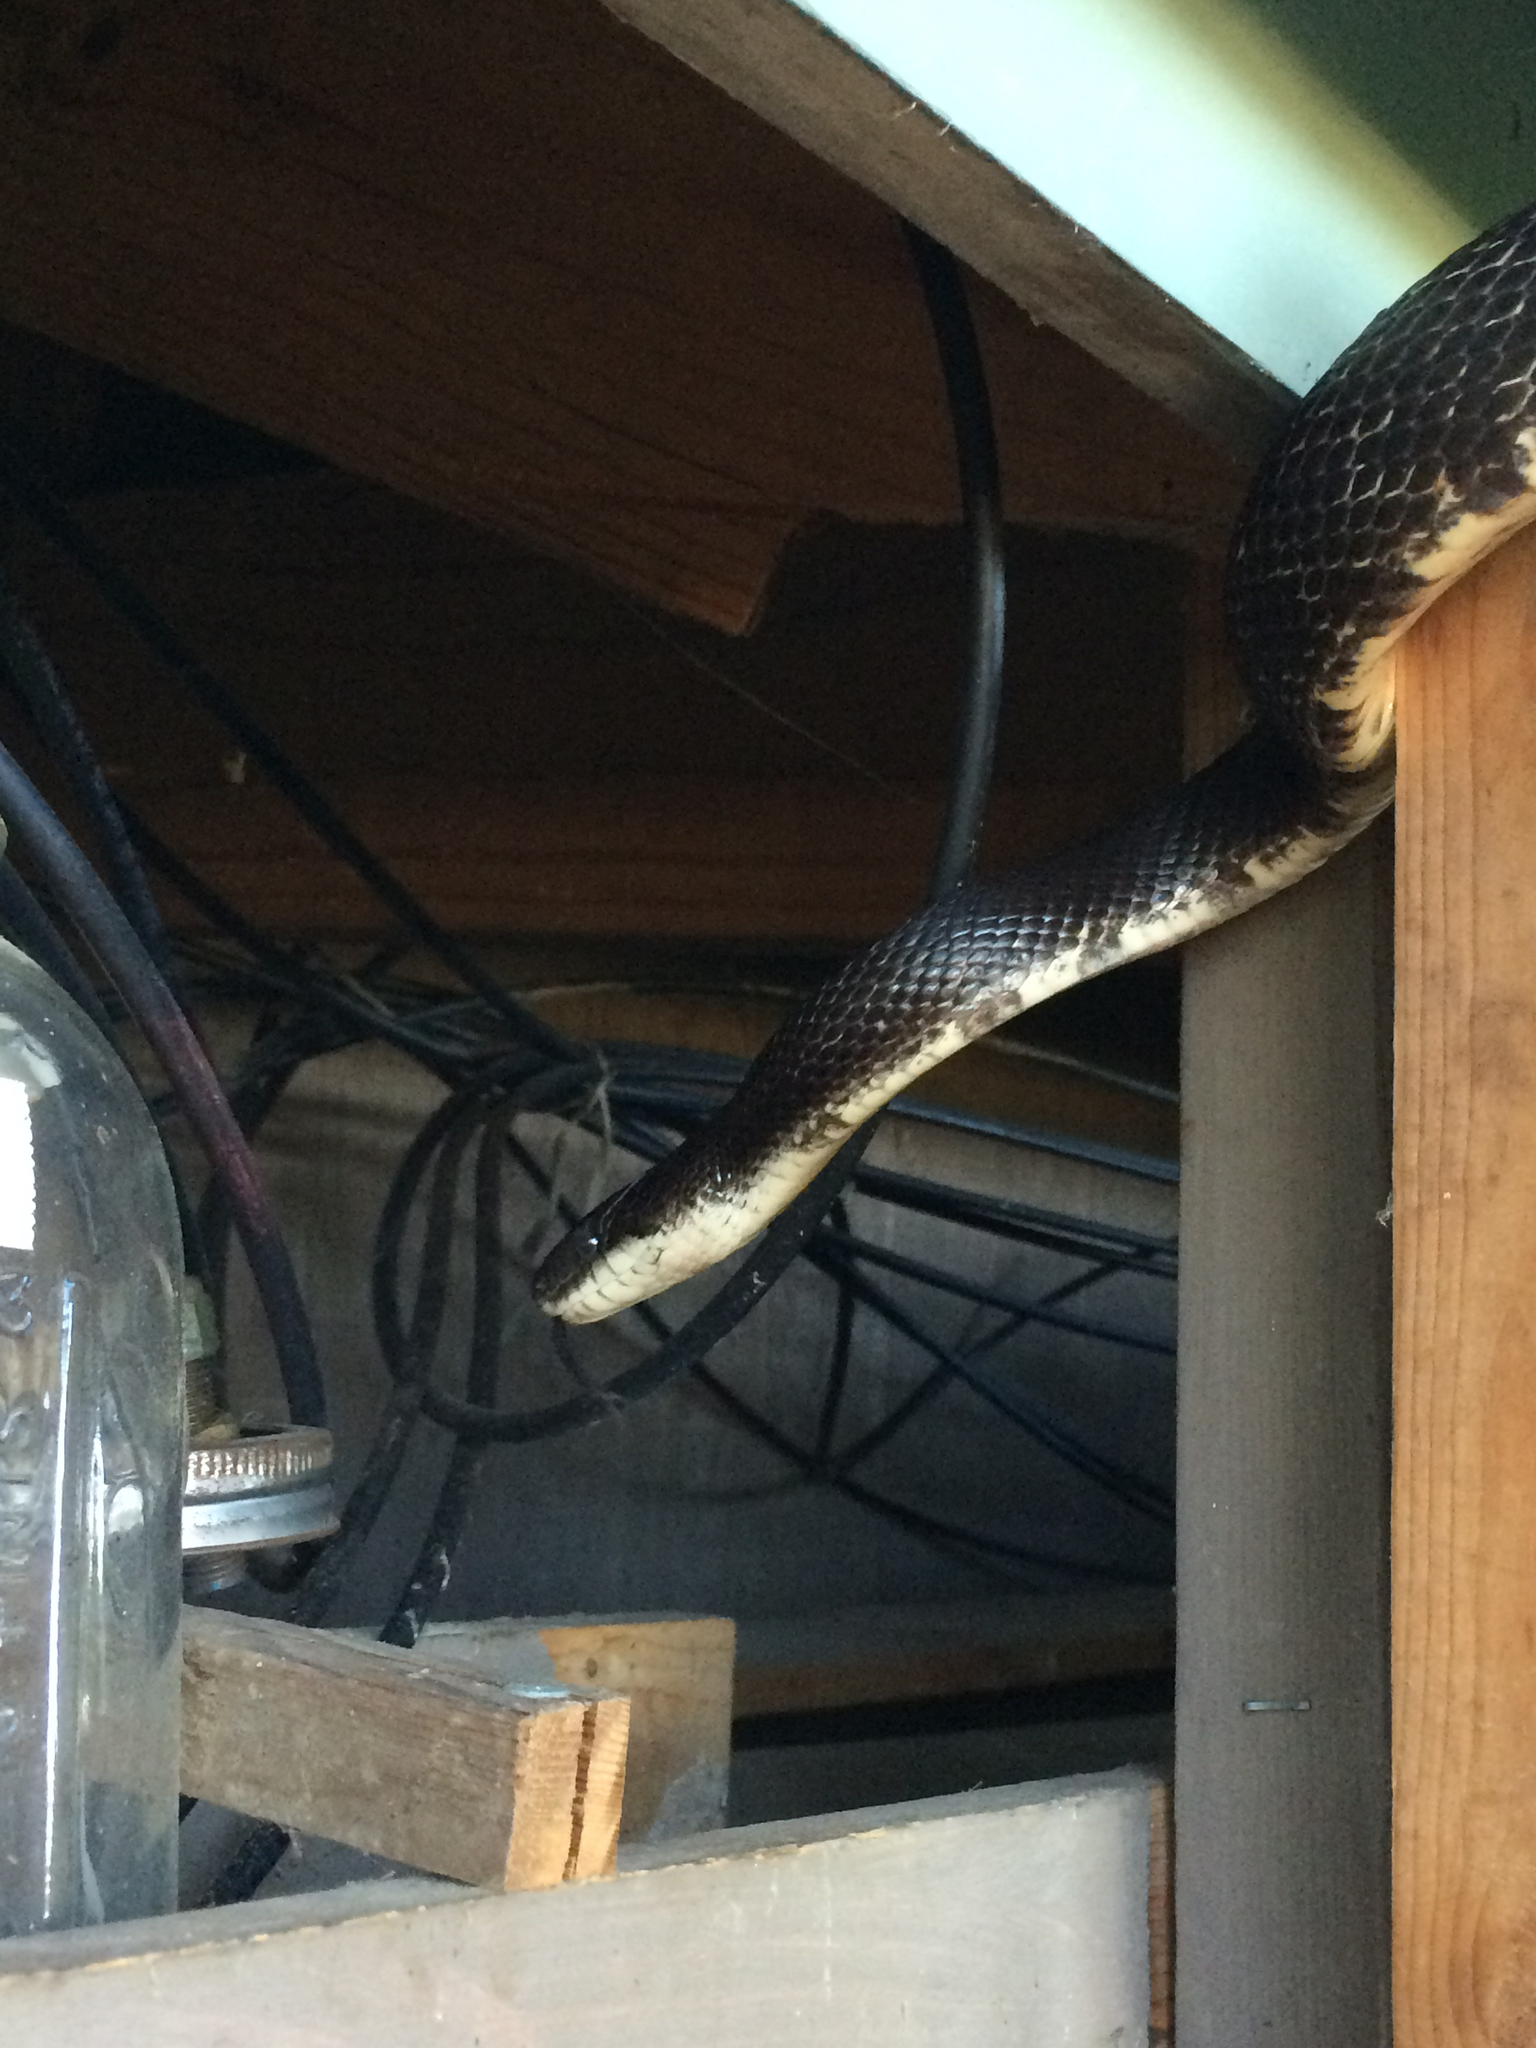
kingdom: Animalia
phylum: Chordata
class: Squamata
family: Colubridae
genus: Pantherophis
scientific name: Pantherophis alleghaniensis
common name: Eastern rat snake
